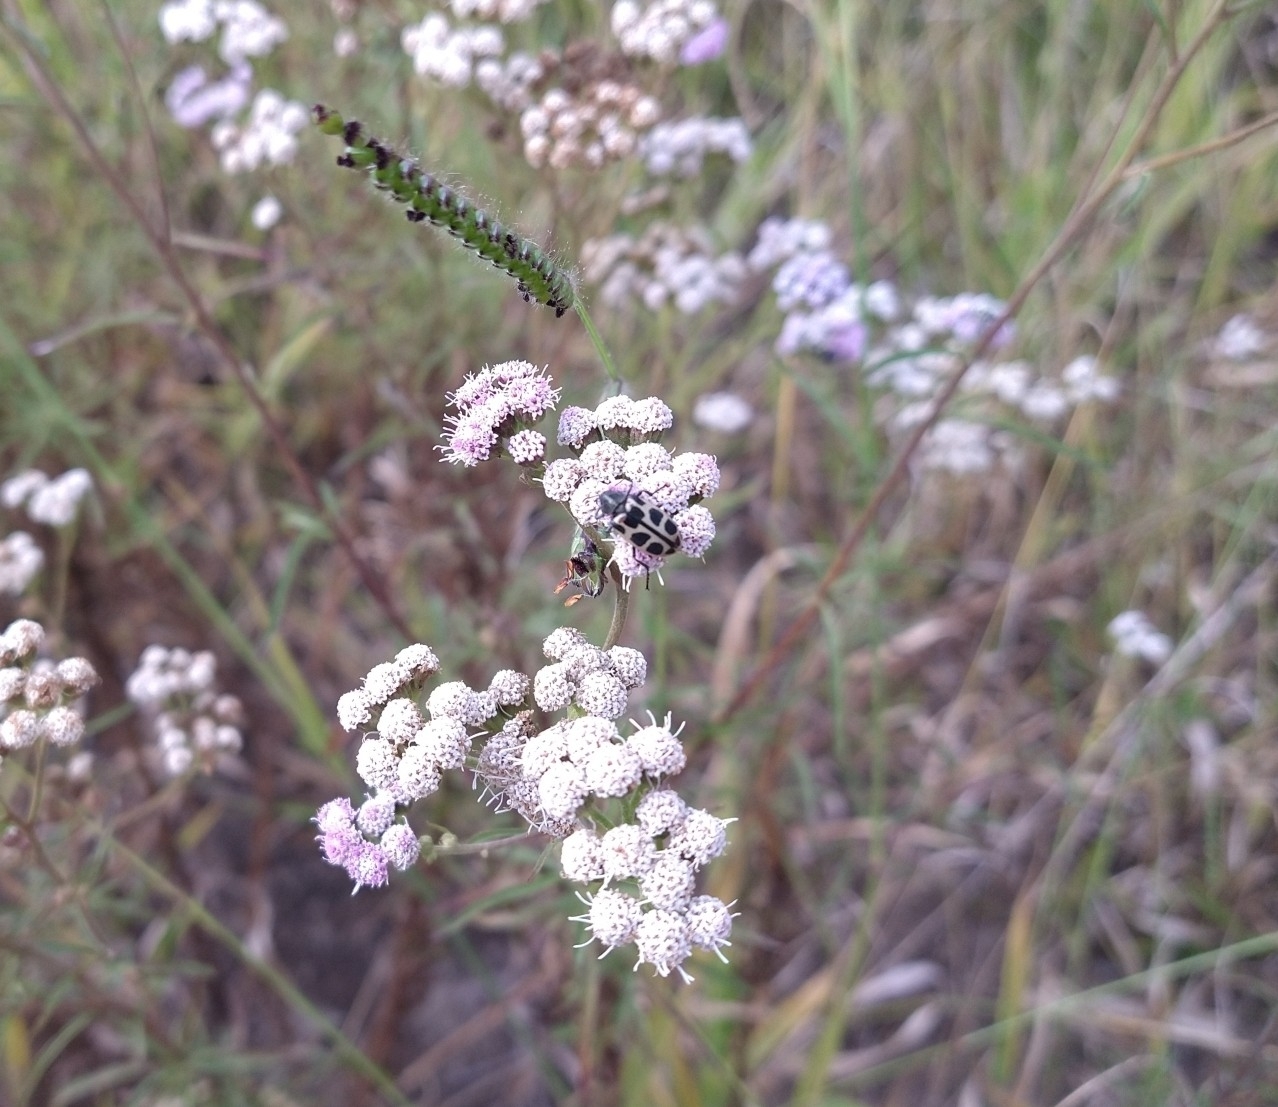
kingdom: Animalia
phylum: Arthropoda
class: Insecta
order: Coleoptera
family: Melyridae
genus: Astylus
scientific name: Astylus
